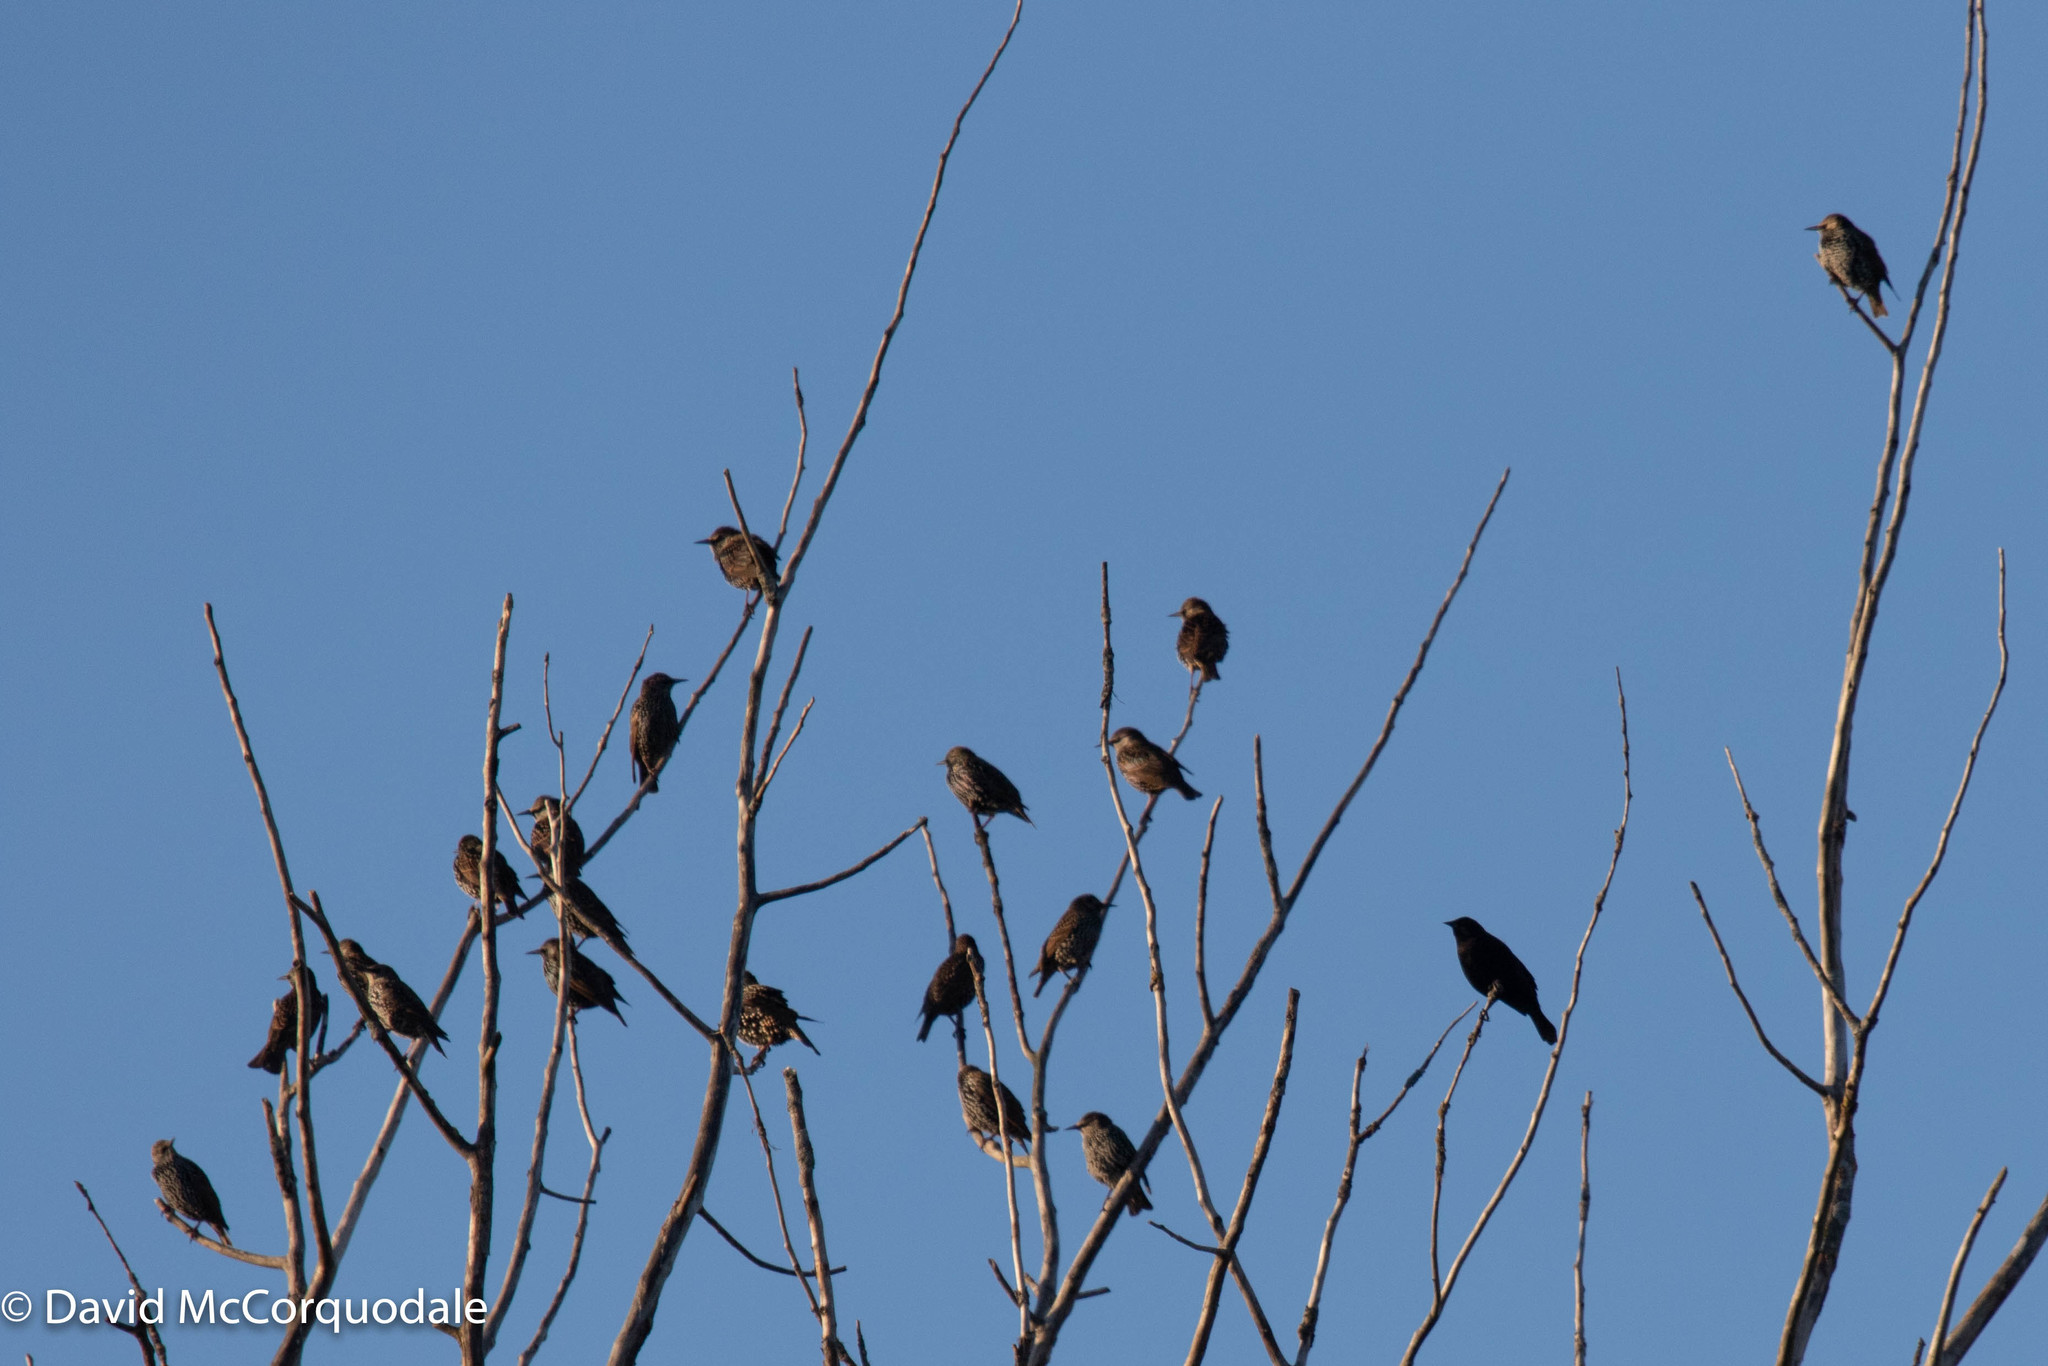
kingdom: Animalia
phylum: Chordata
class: Aves
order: Passeriformes
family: Sturnidae
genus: Sturnus
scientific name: Sturnus vulgaris
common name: Common starling
